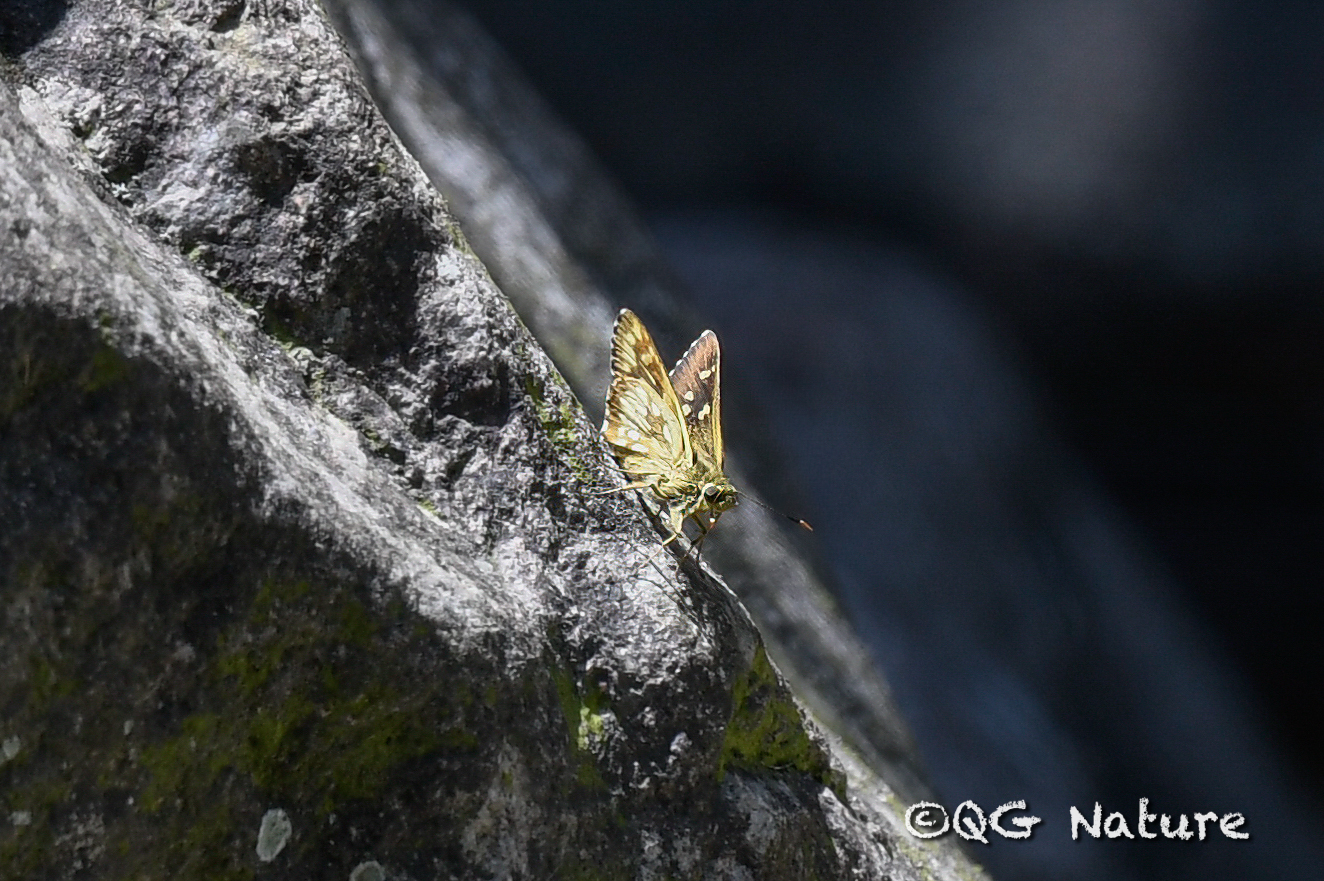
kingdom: Animalia
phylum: Arthropoda
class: Insecta
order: Lepidoptera
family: Hesperiidae
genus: Thoressa
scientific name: Thoressa submacula
